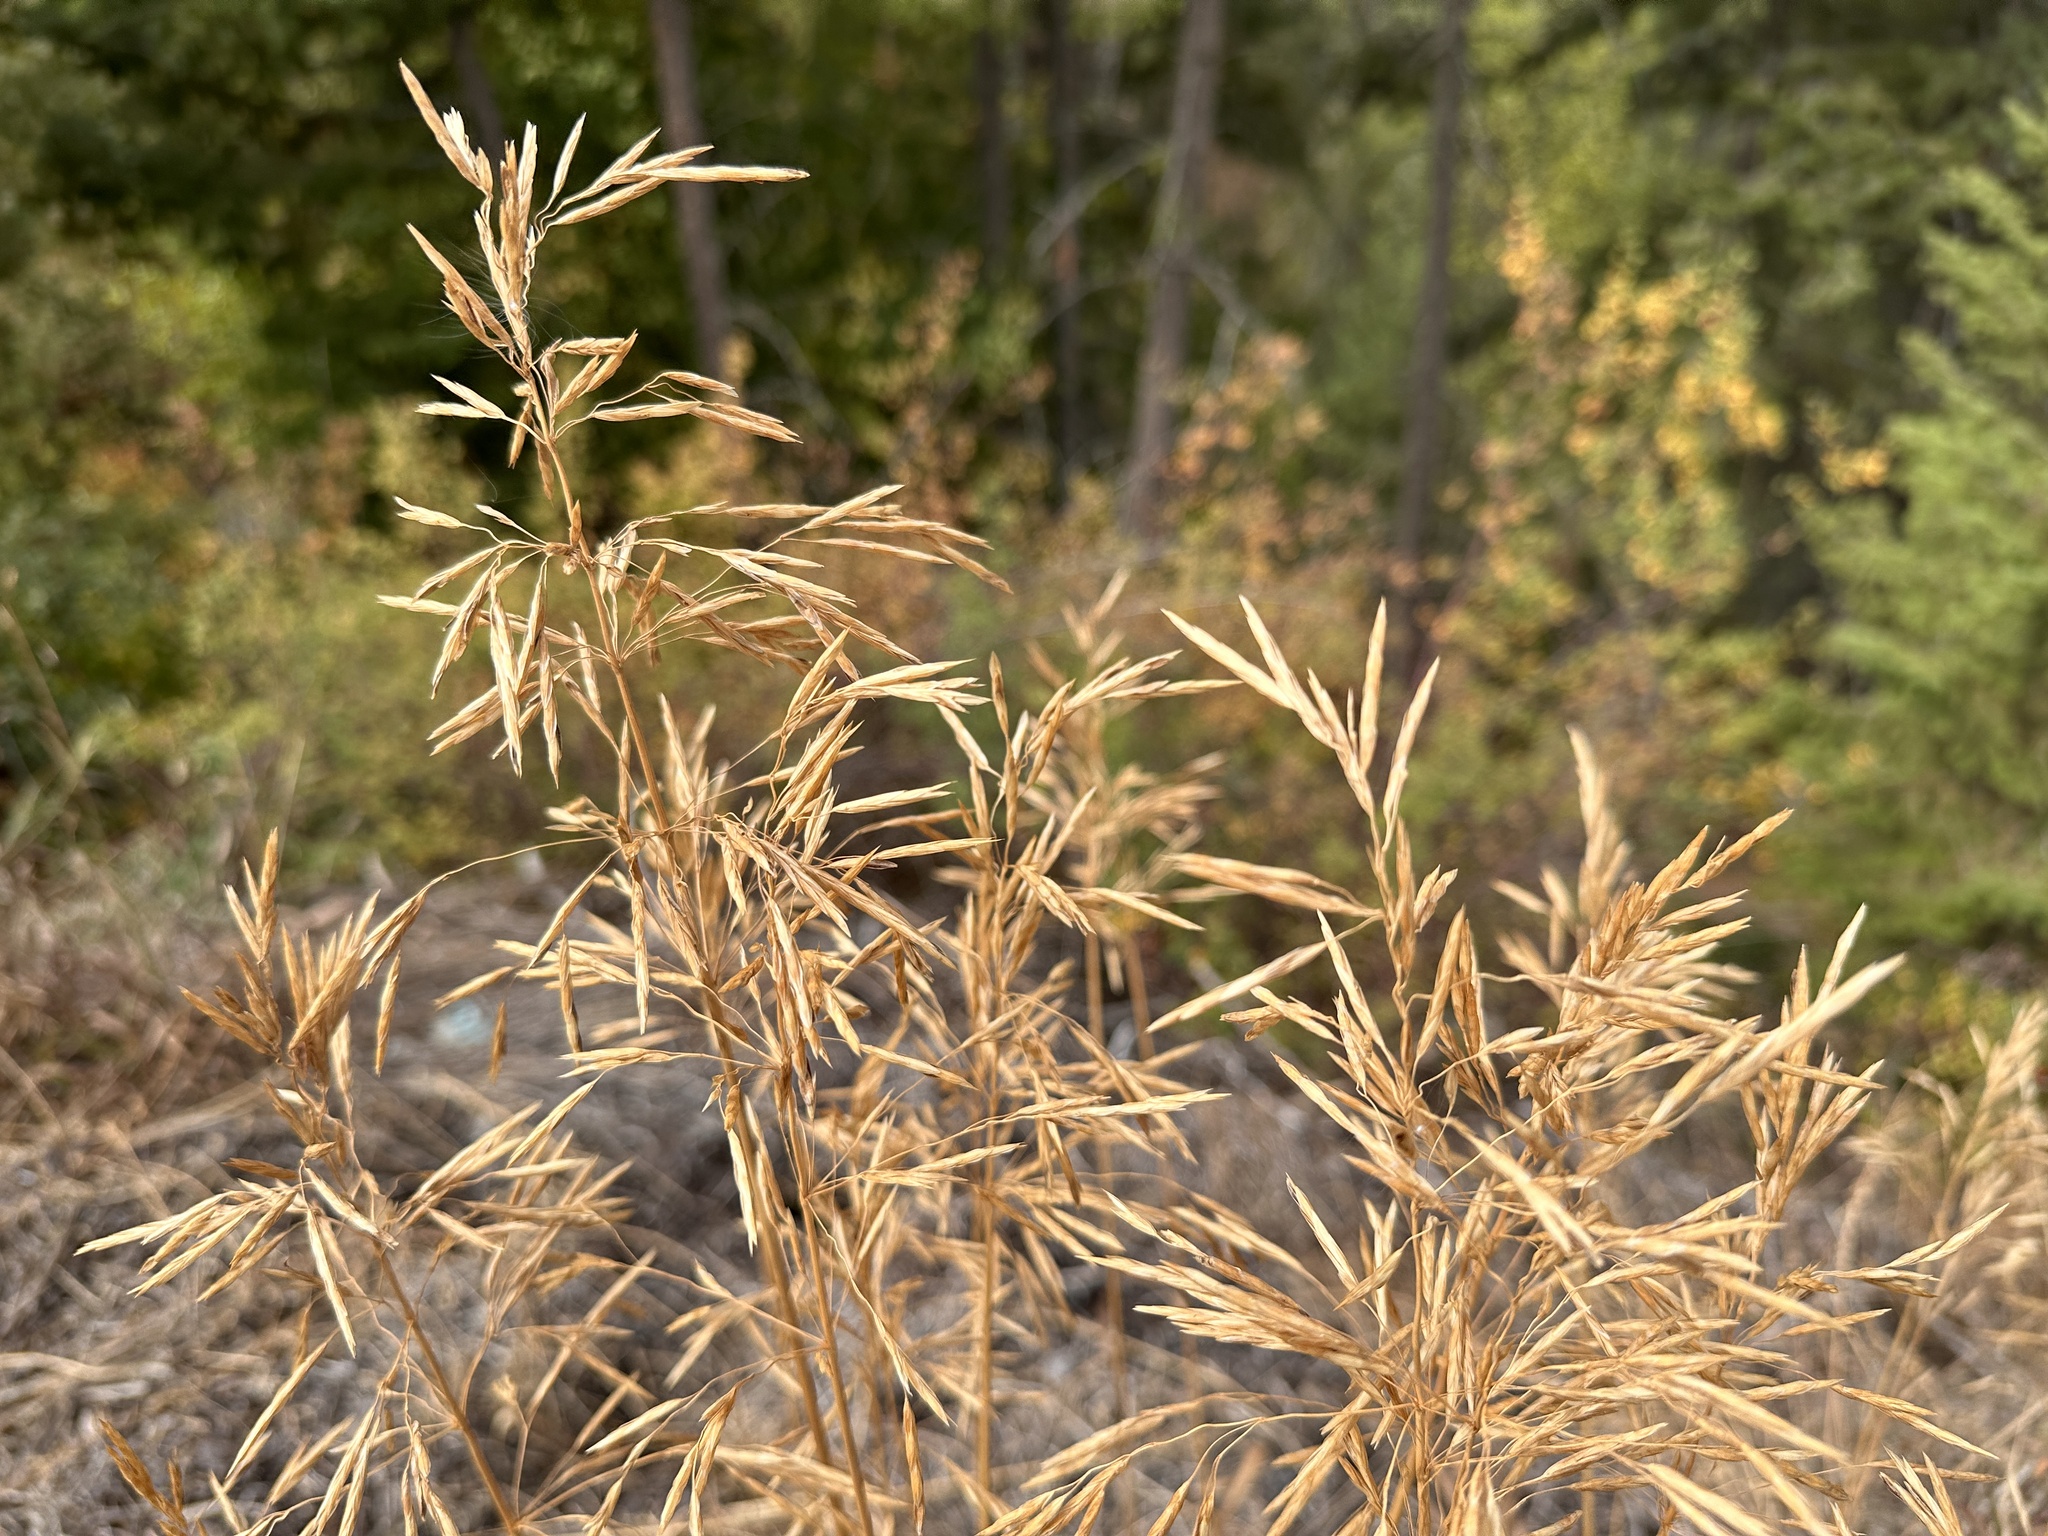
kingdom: Plantae
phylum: Tracheophyta
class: Liliopsida
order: Poales
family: Poaceae
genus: Bromus
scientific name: Bromus inermis
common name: Smooth brome
